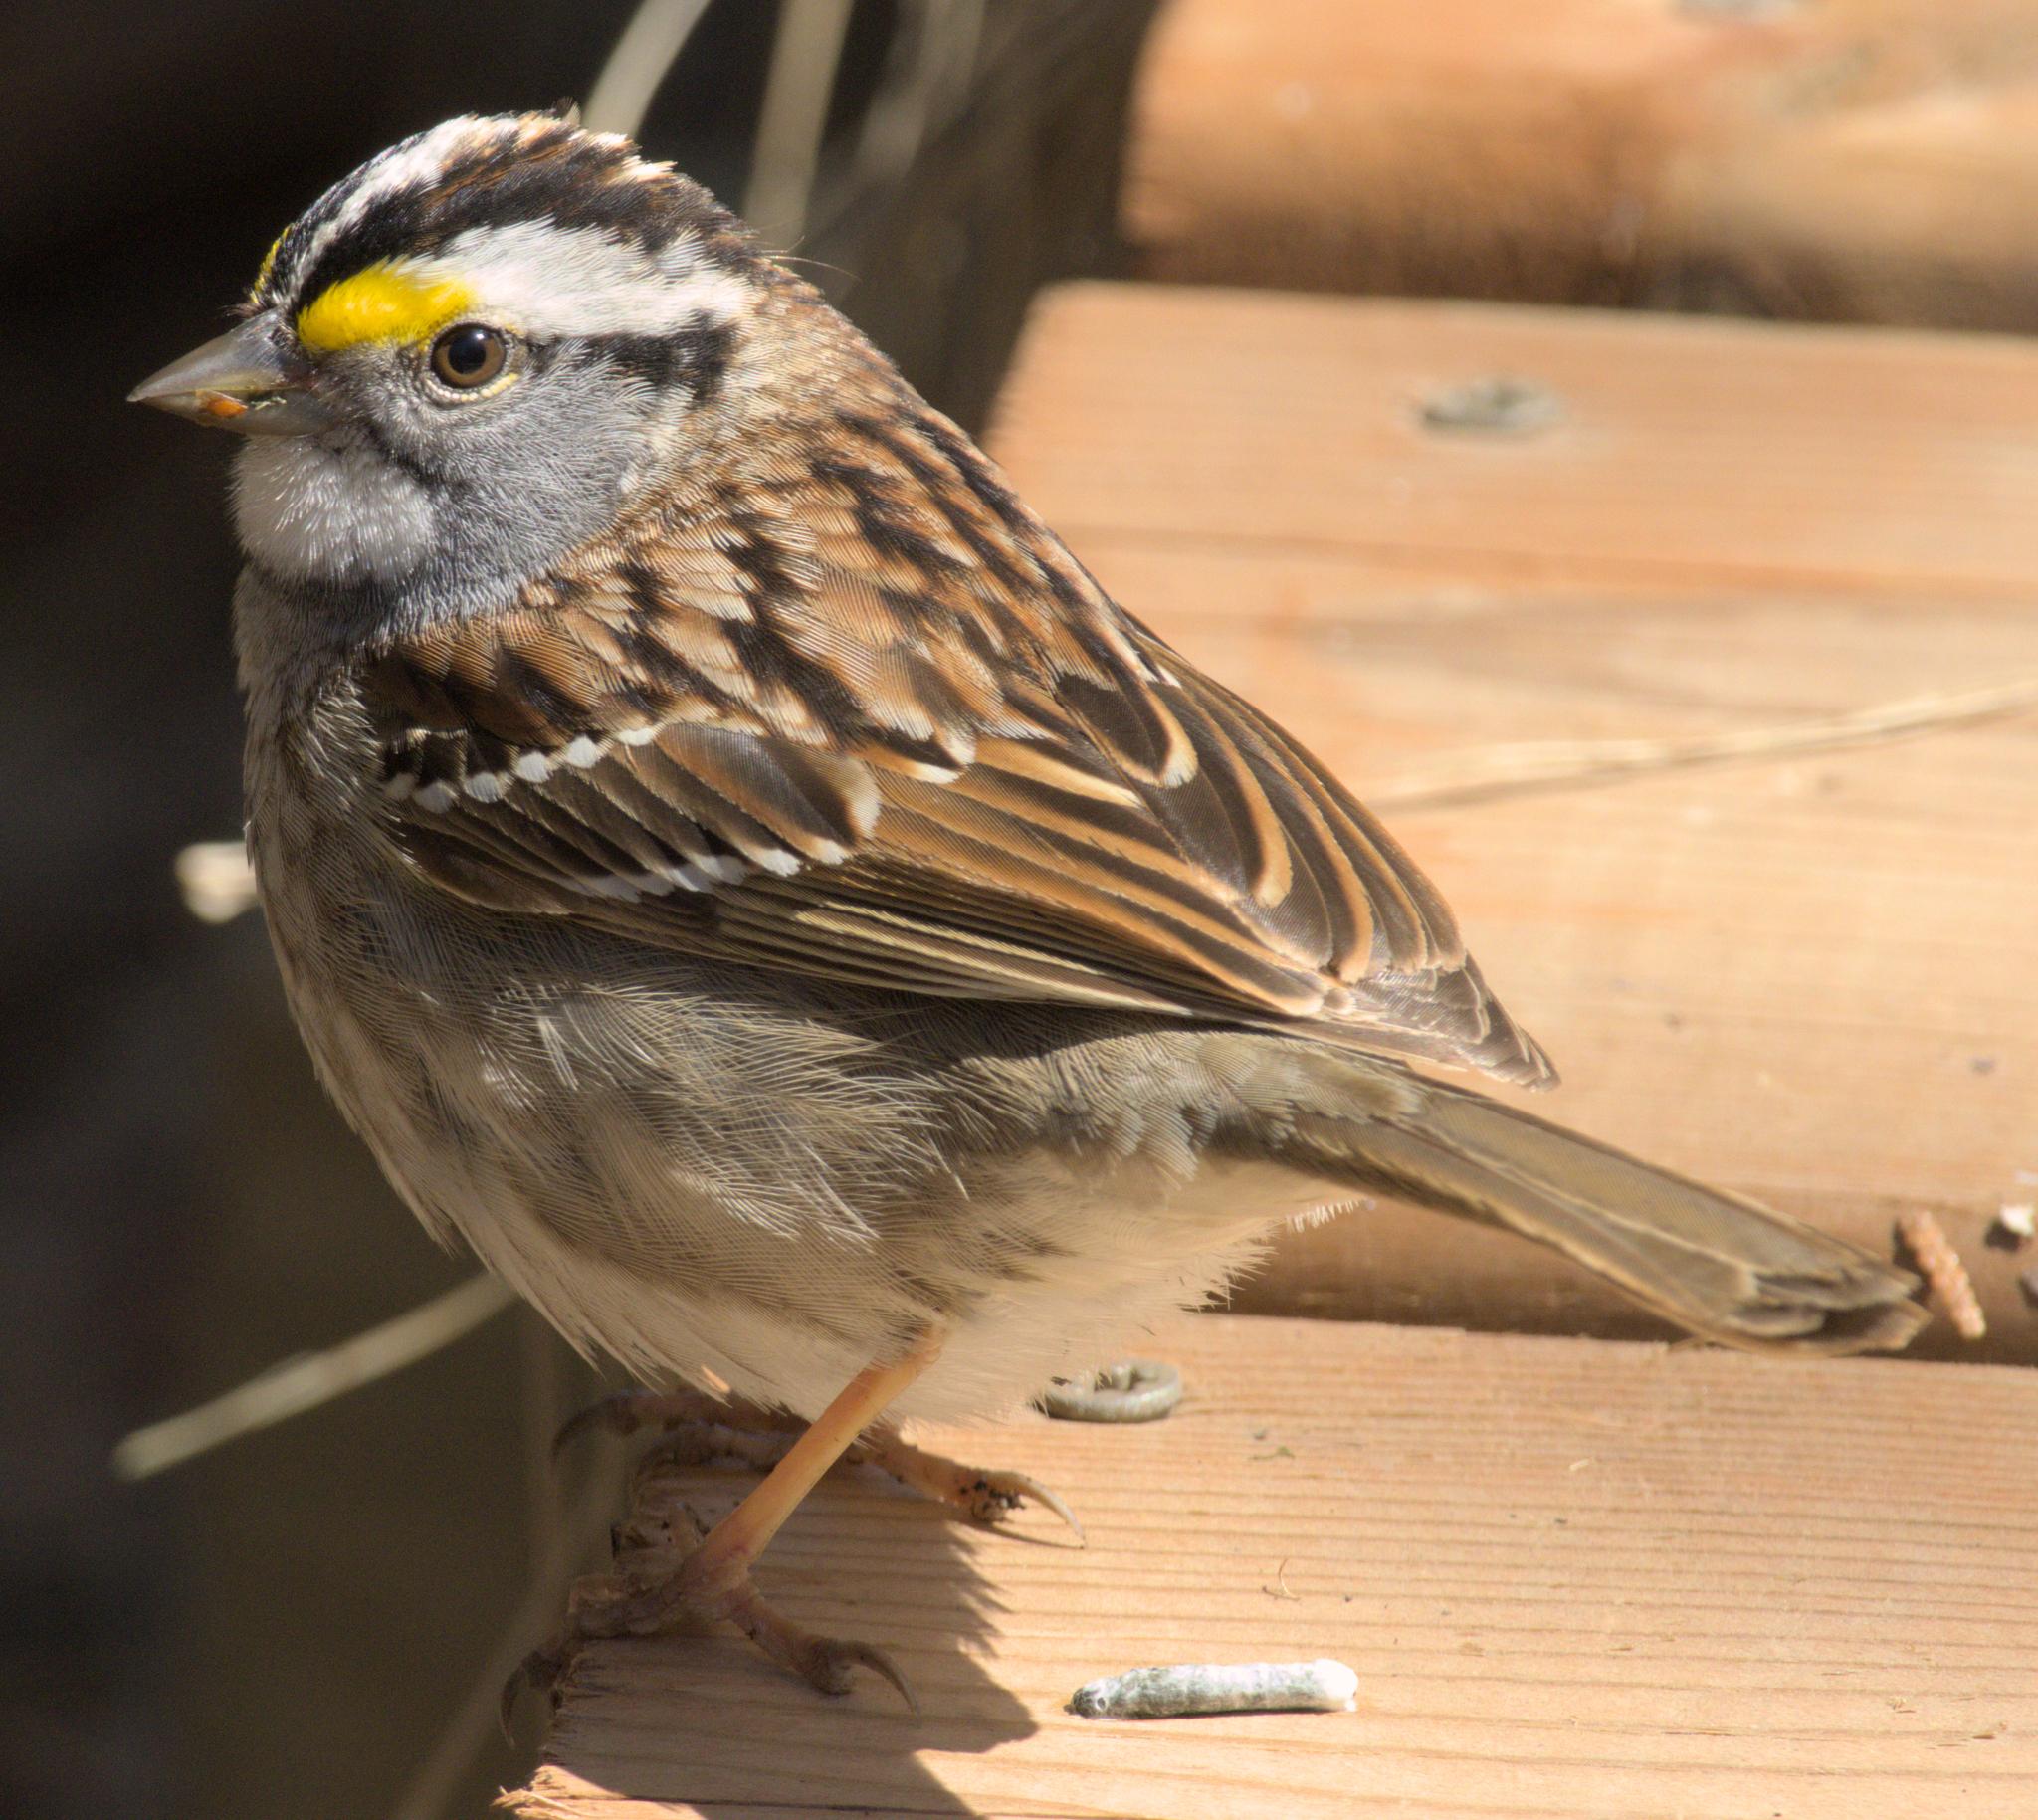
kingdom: Animalia
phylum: Chordata
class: Aves
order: Passeriformes
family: Passerellidae
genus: Zonotrichia
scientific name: Zonotrichia albicollis
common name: White-throated sparrow
